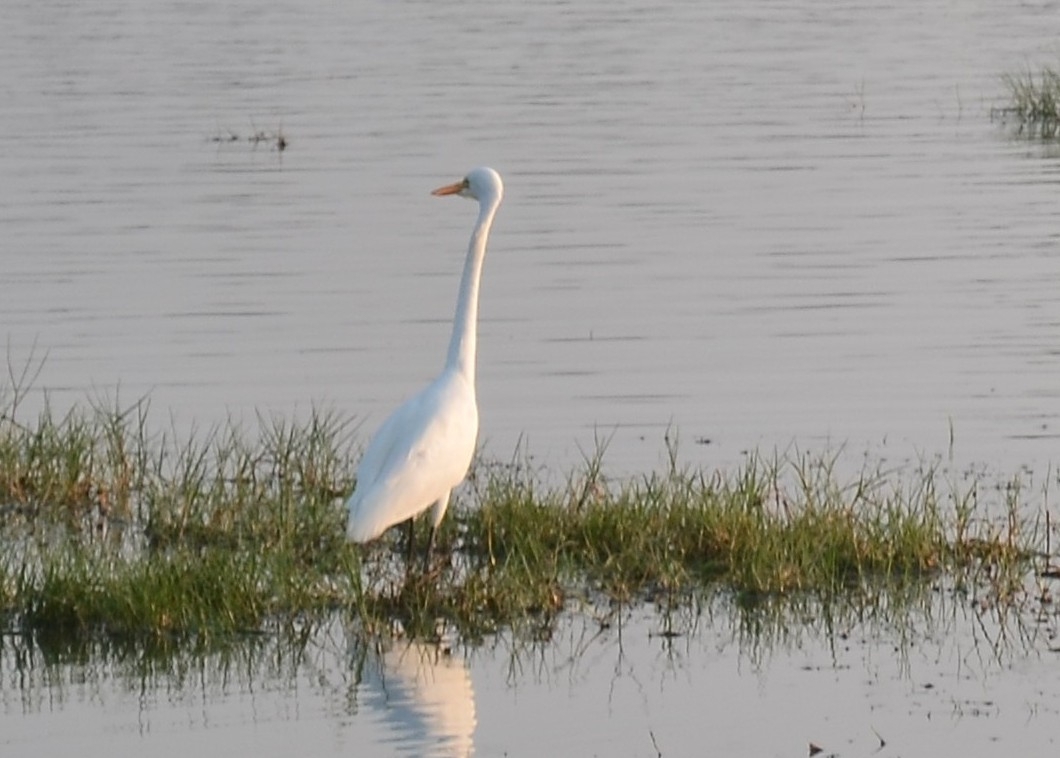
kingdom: Animalia
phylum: Chordata
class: Aves
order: Pelecaniformes
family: Ardeidae
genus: Egretta
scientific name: Egretta intermedia
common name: Intermediate egret
